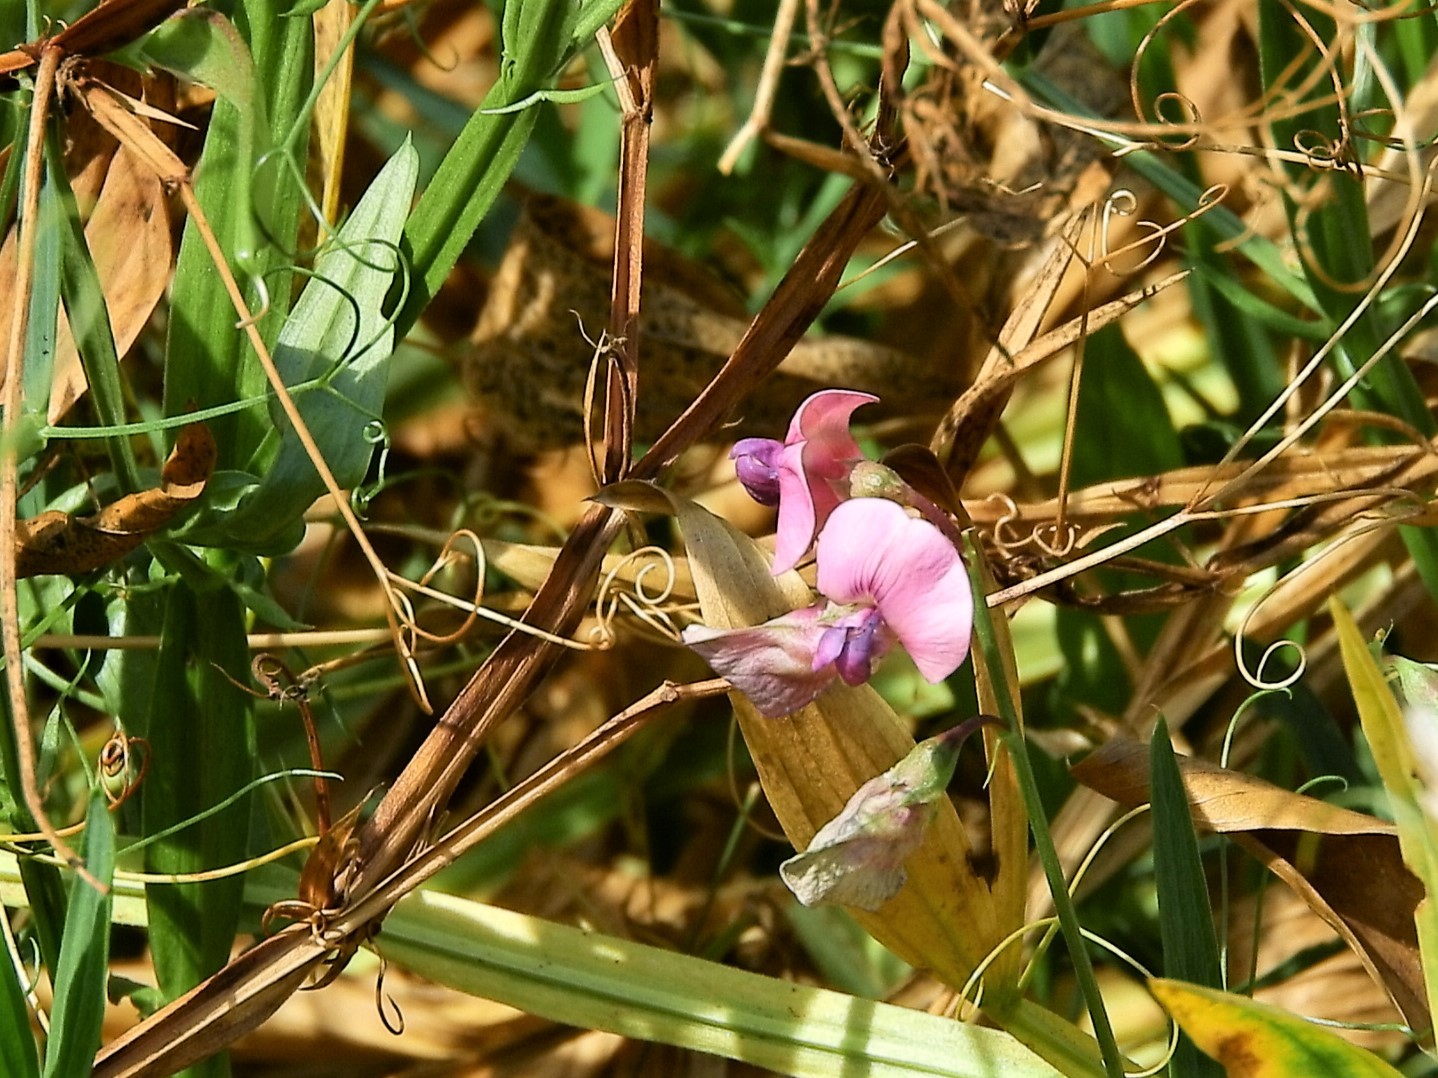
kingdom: Plantae
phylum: Tracheophyta
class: Magnoliopsida
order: Fabales
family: Fabaceae
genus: Lathyrus
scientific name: Lathyrus sylvestris
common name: Flat pea
